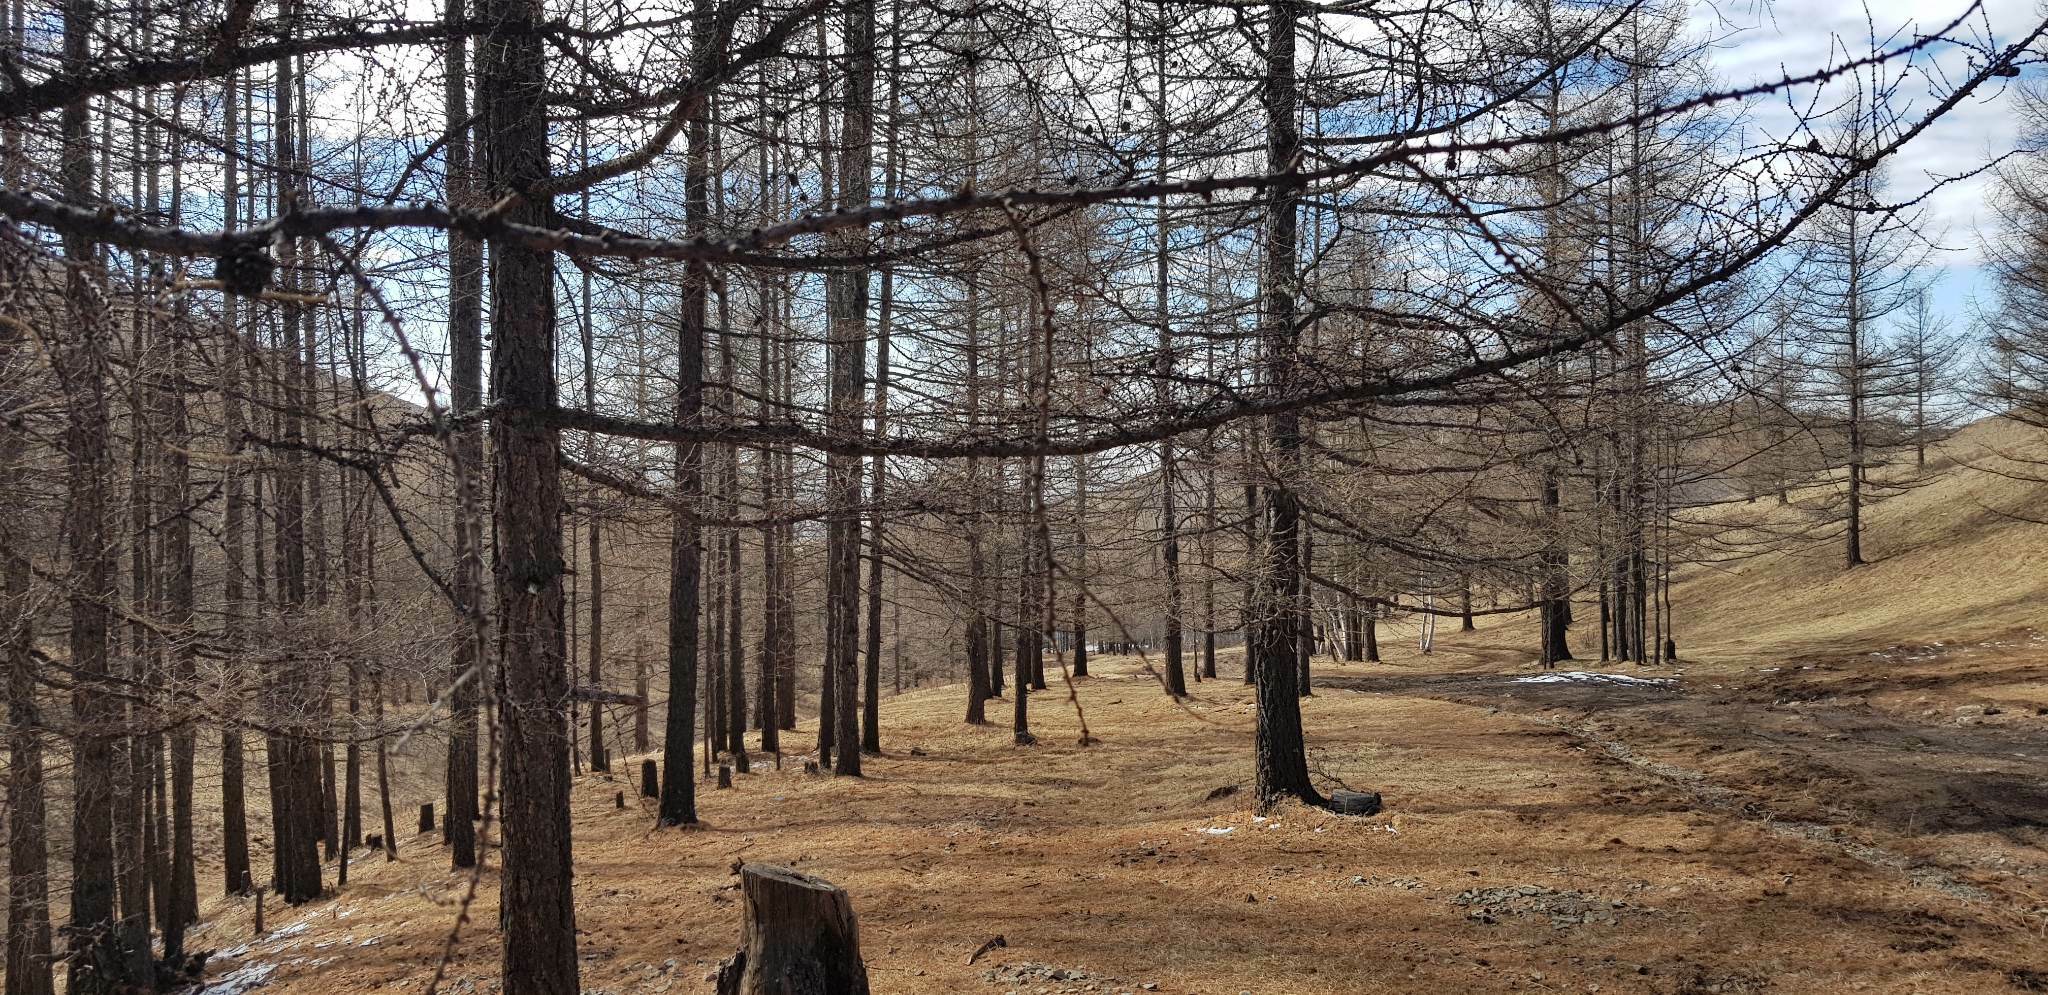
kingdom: Plantae
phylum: Tracheophyta
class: Pinopsida
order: Pinales
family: Pinaceae
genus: Larix
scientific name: Larix sibirica
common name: Siberian larch
